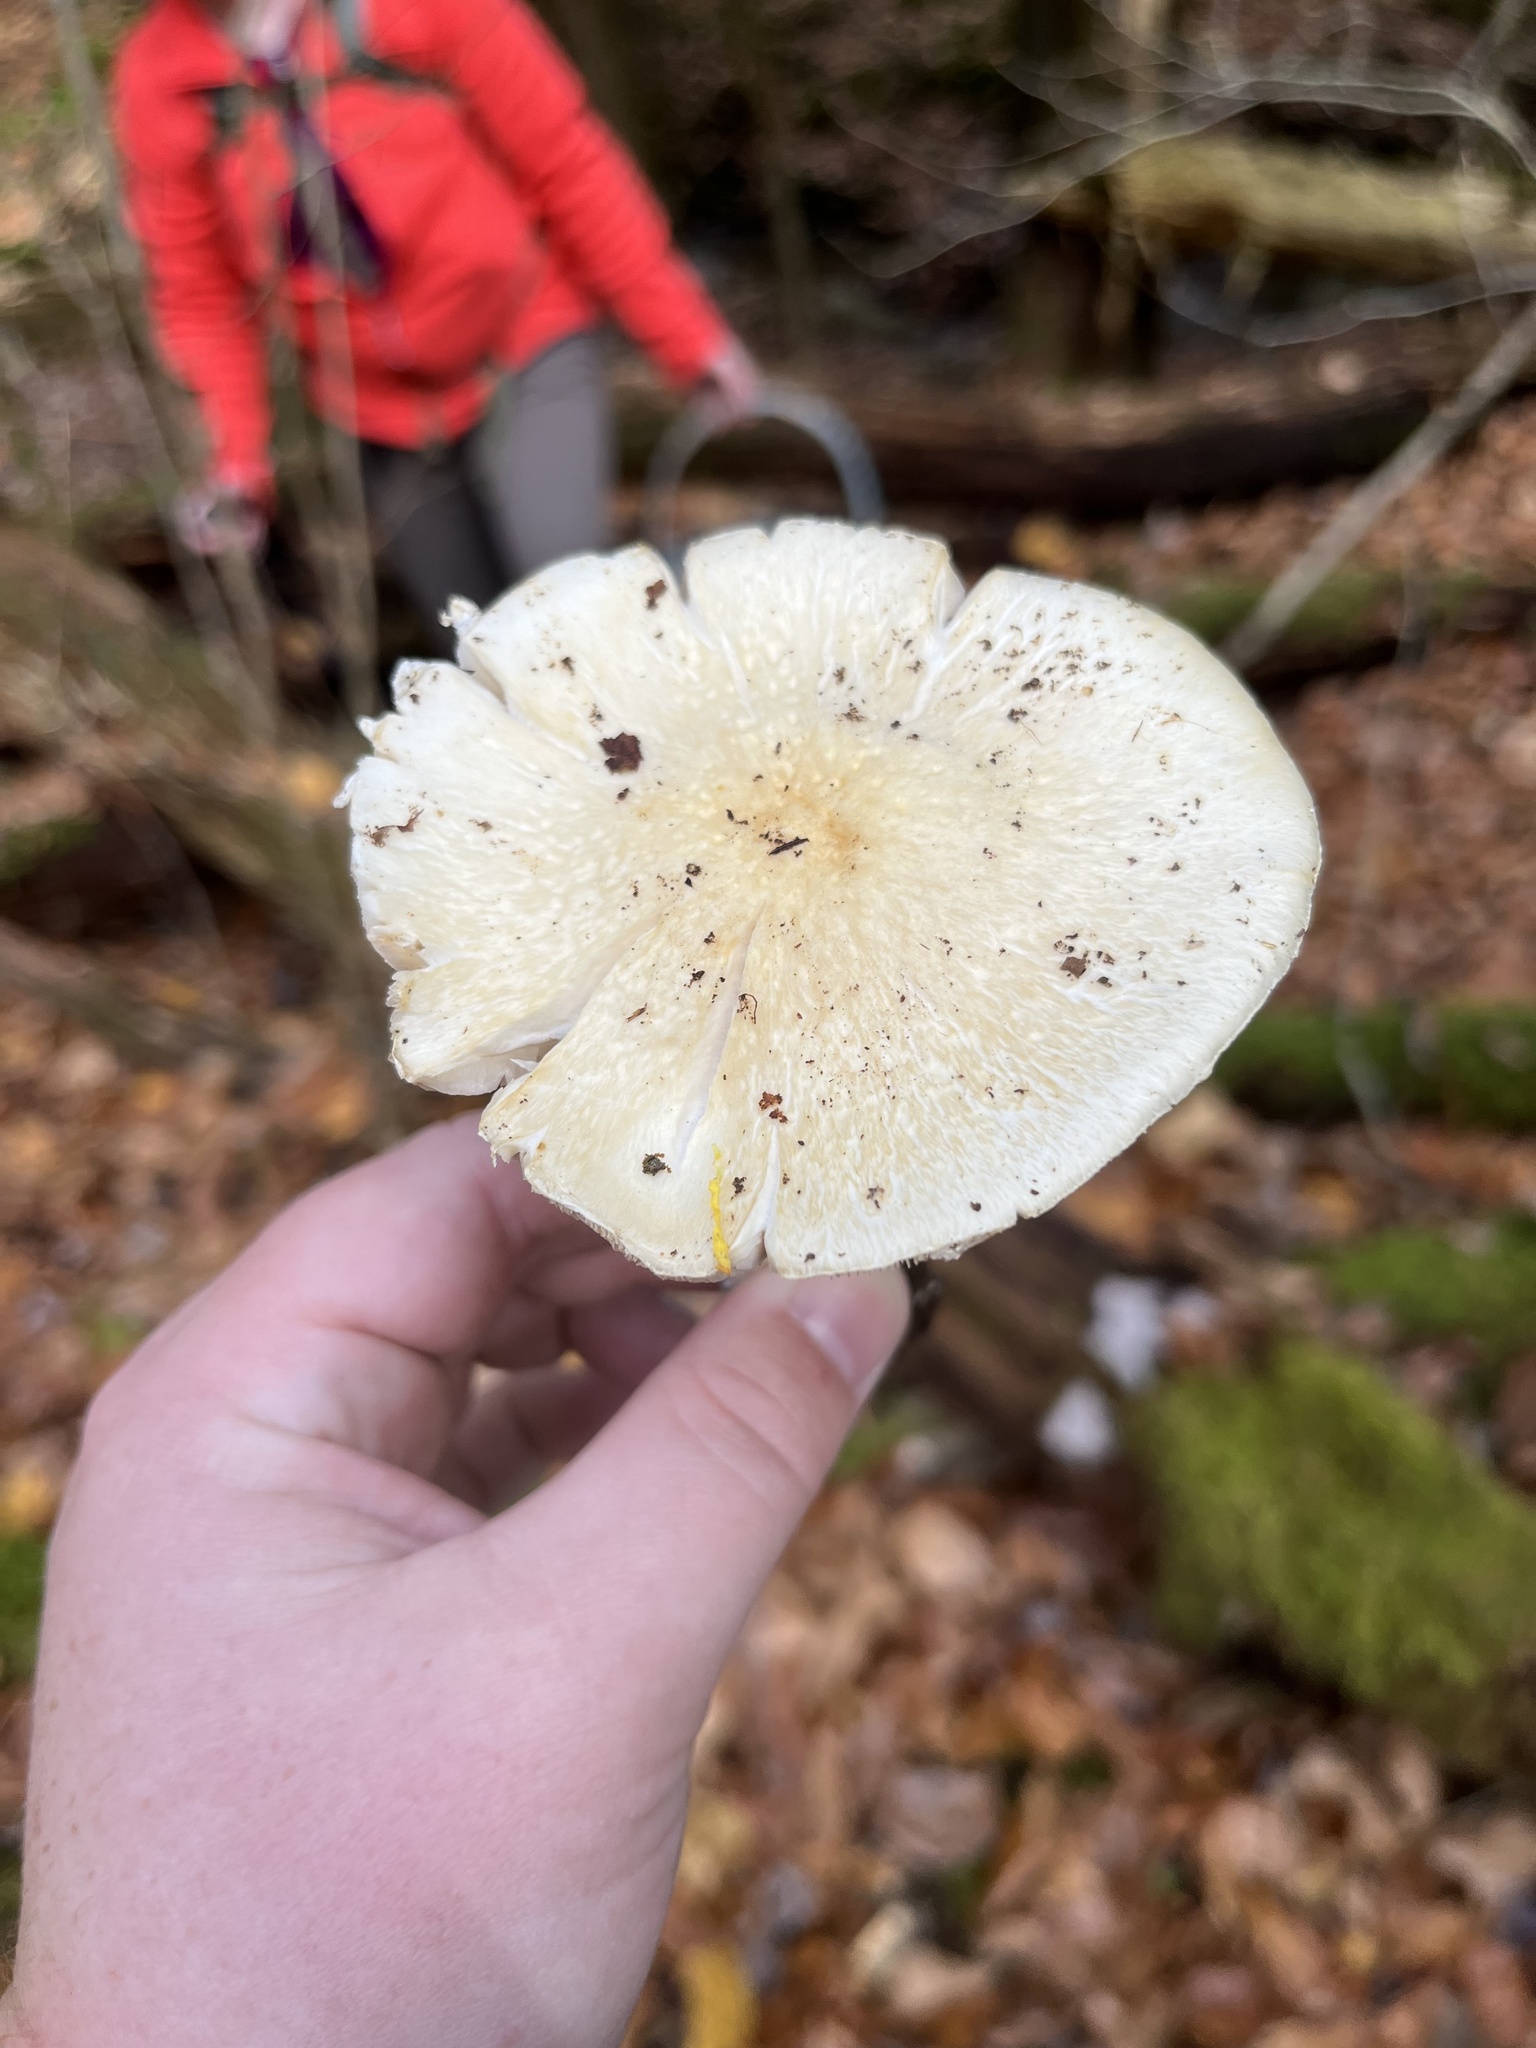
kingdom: Fungi
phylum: Basidiomycota
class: Agaricomycetes
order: Agaricales
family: Strophariaceae
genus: Stropharia
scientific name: Stropharia hardii
